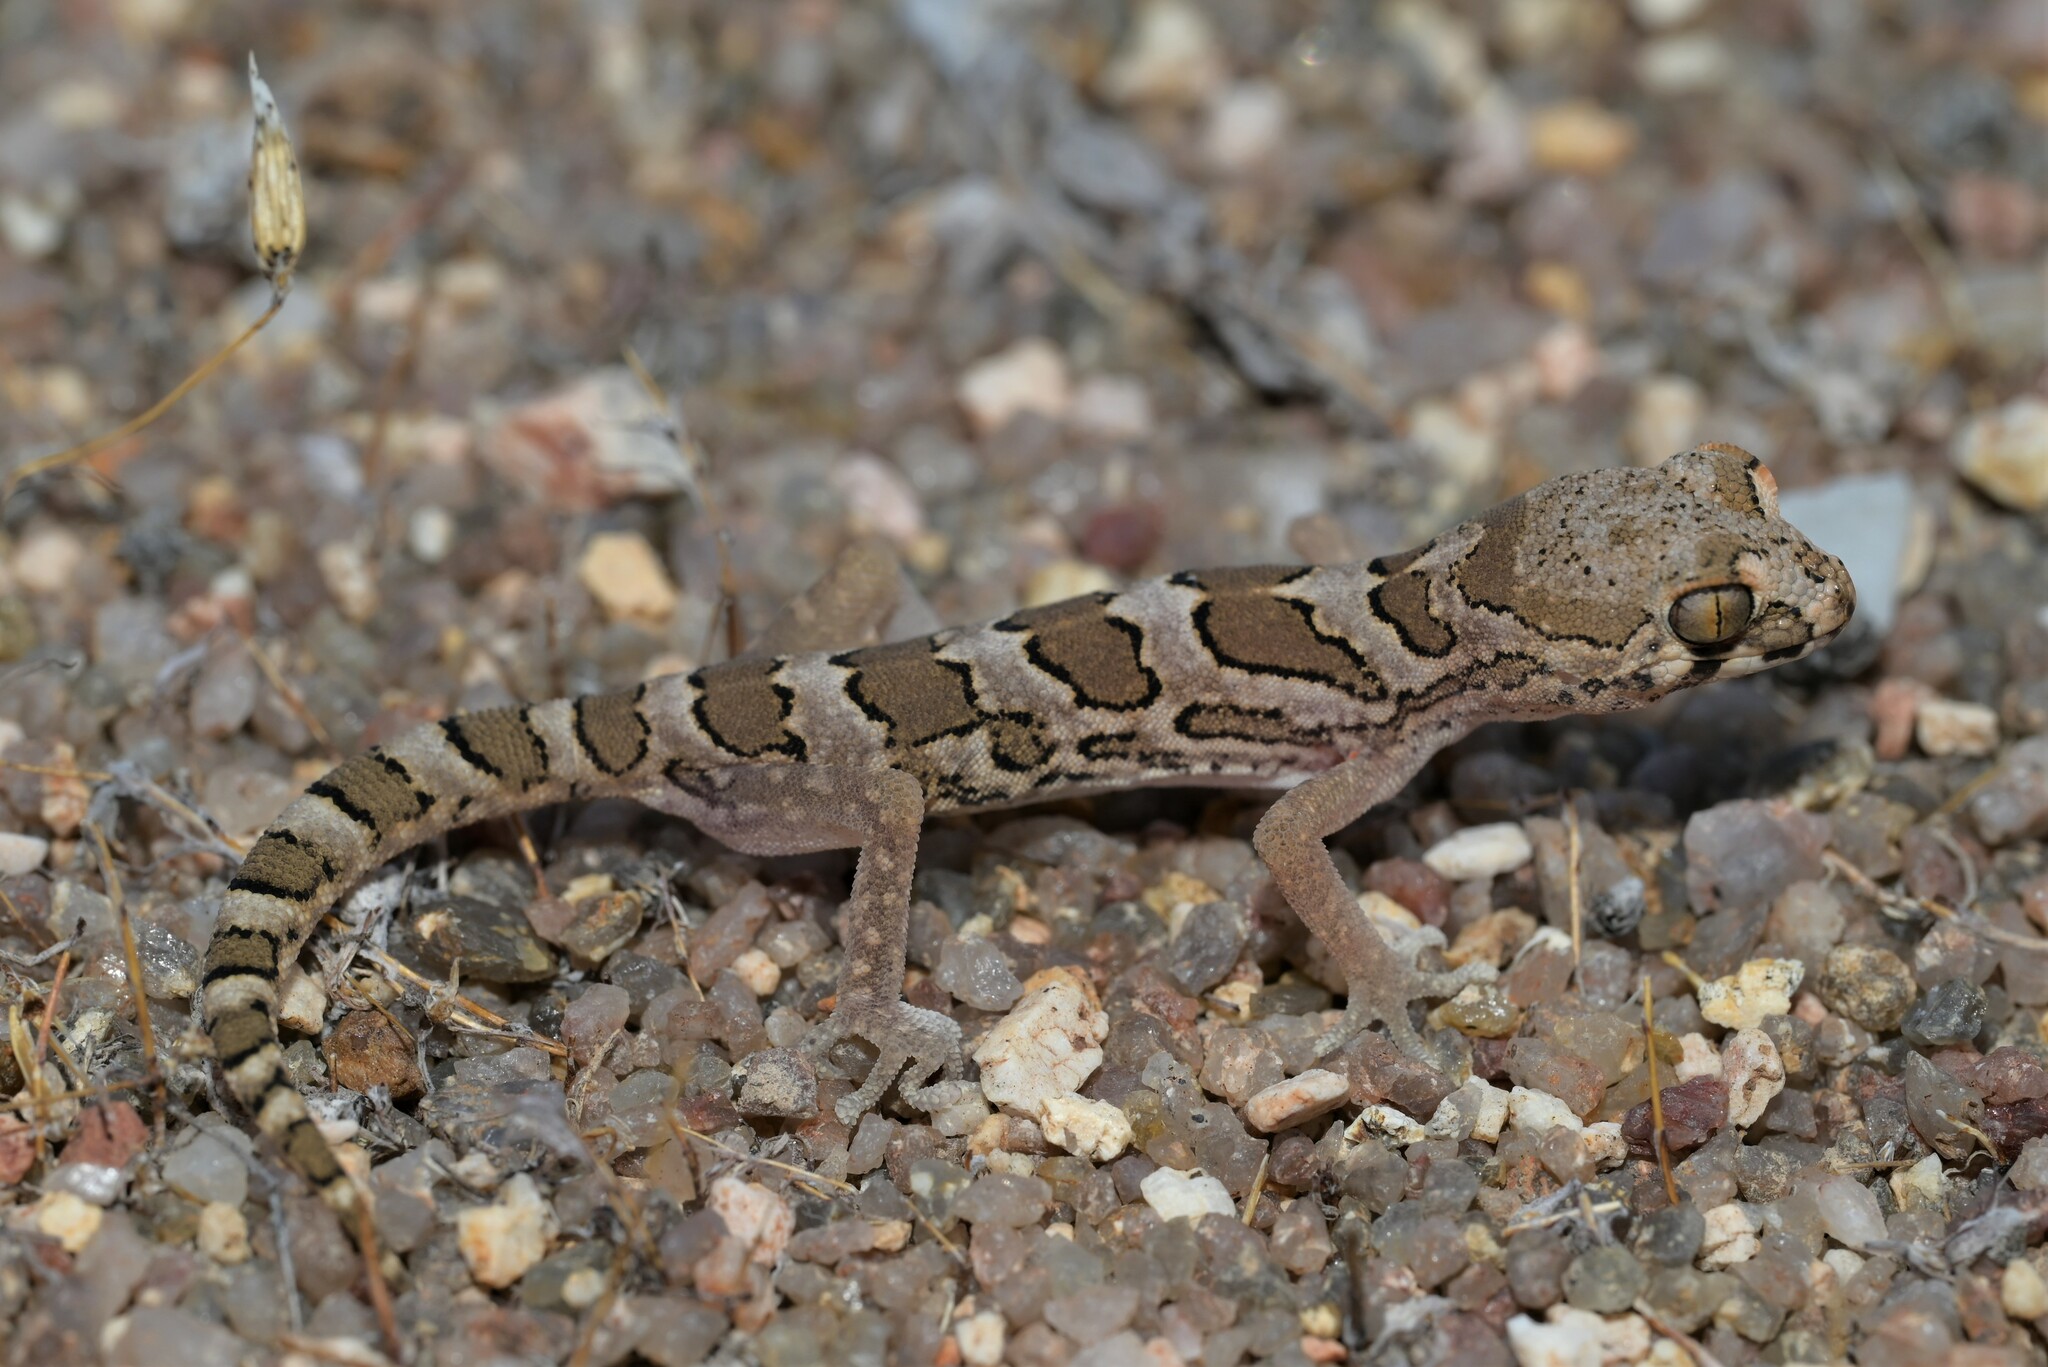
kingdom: Animalia
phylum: Chordata
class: Squamata
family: Gekkonidae
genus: Pachydactylus
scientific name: Pachydactylus macrolepis
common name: Large-scaled banded gecko
